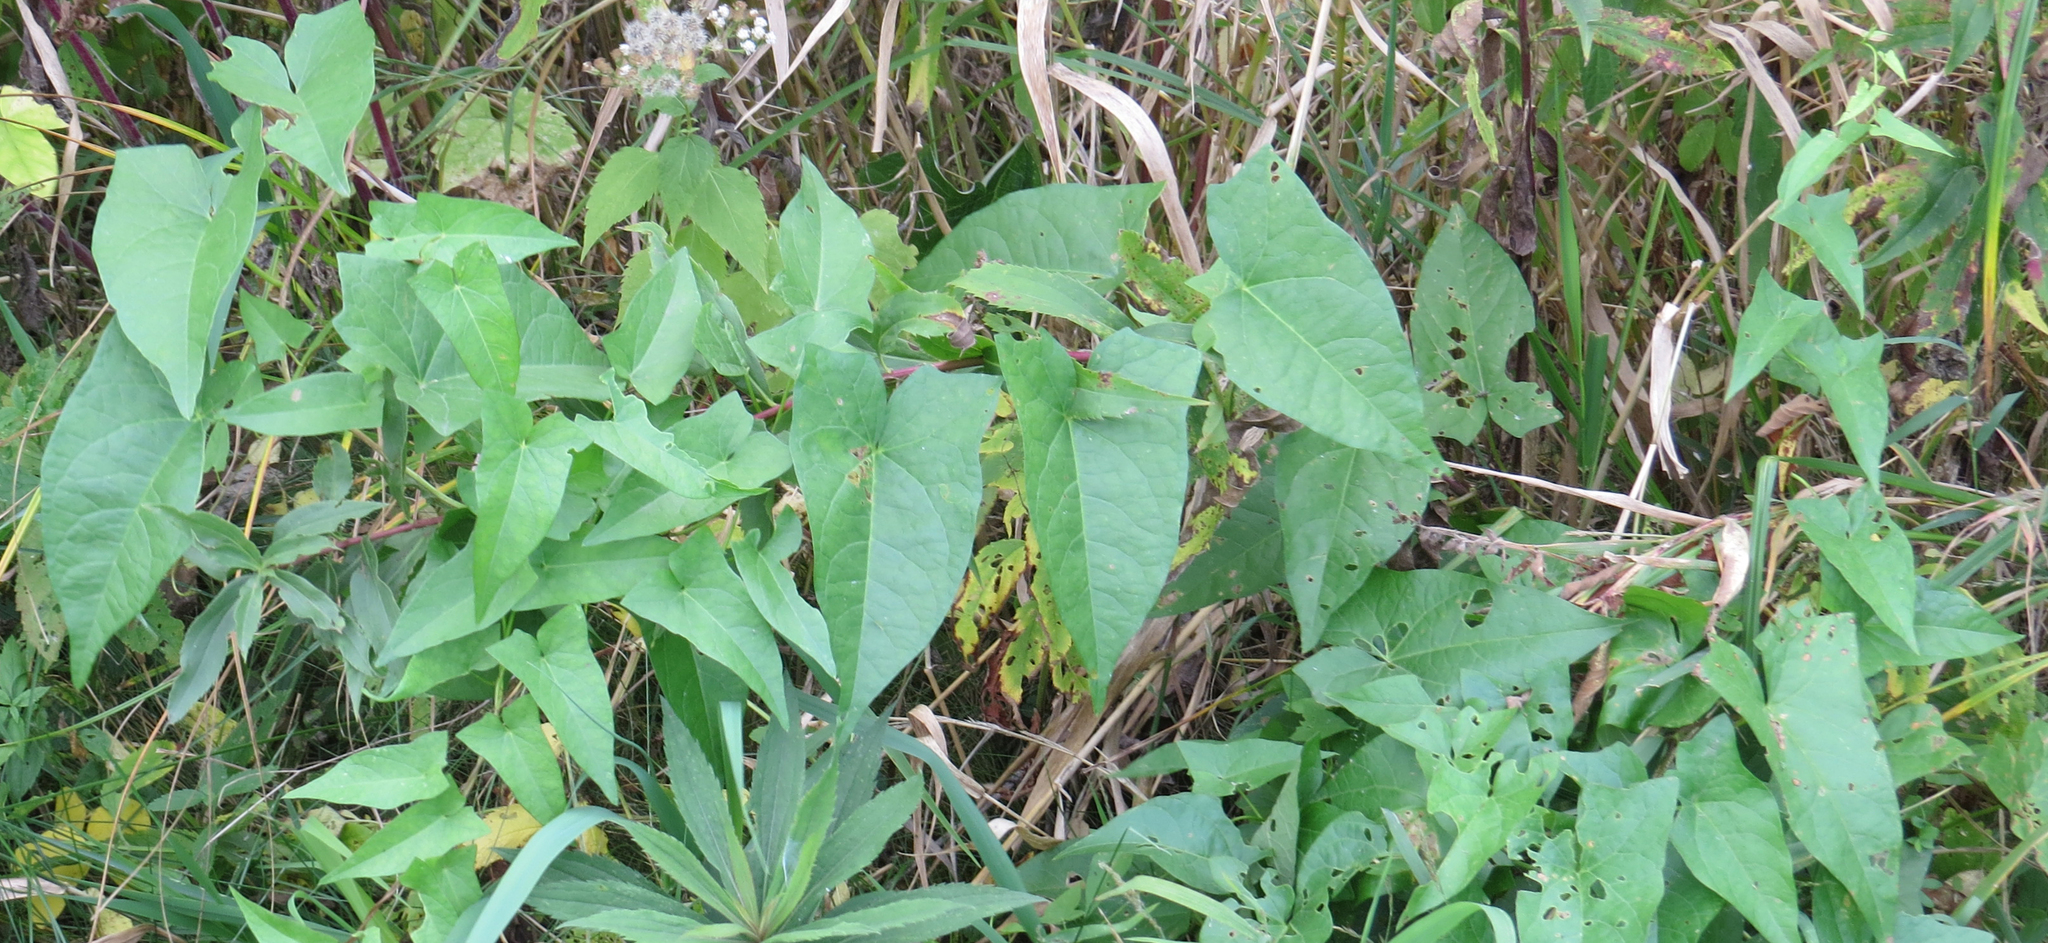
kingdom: Plantae
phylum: Tracheophyta
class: Magnoliopsida
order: Solanales
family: Convolvulaceae
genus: Calystegia
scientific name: Calystegia sepium
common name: Hedge bindweed
